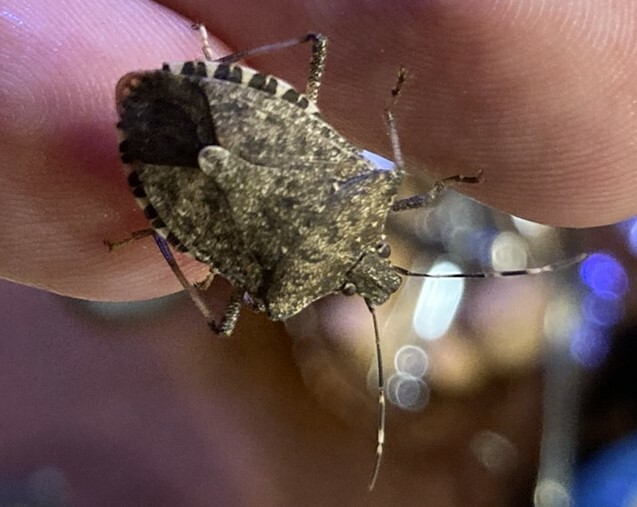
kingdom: Animalia
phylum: Arthropoda
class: Insecta
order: Hemiptera
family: Pentatomidae
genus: Halyomorpha
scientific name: Halyomorpha halys
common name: Brown marmorated stink bug
